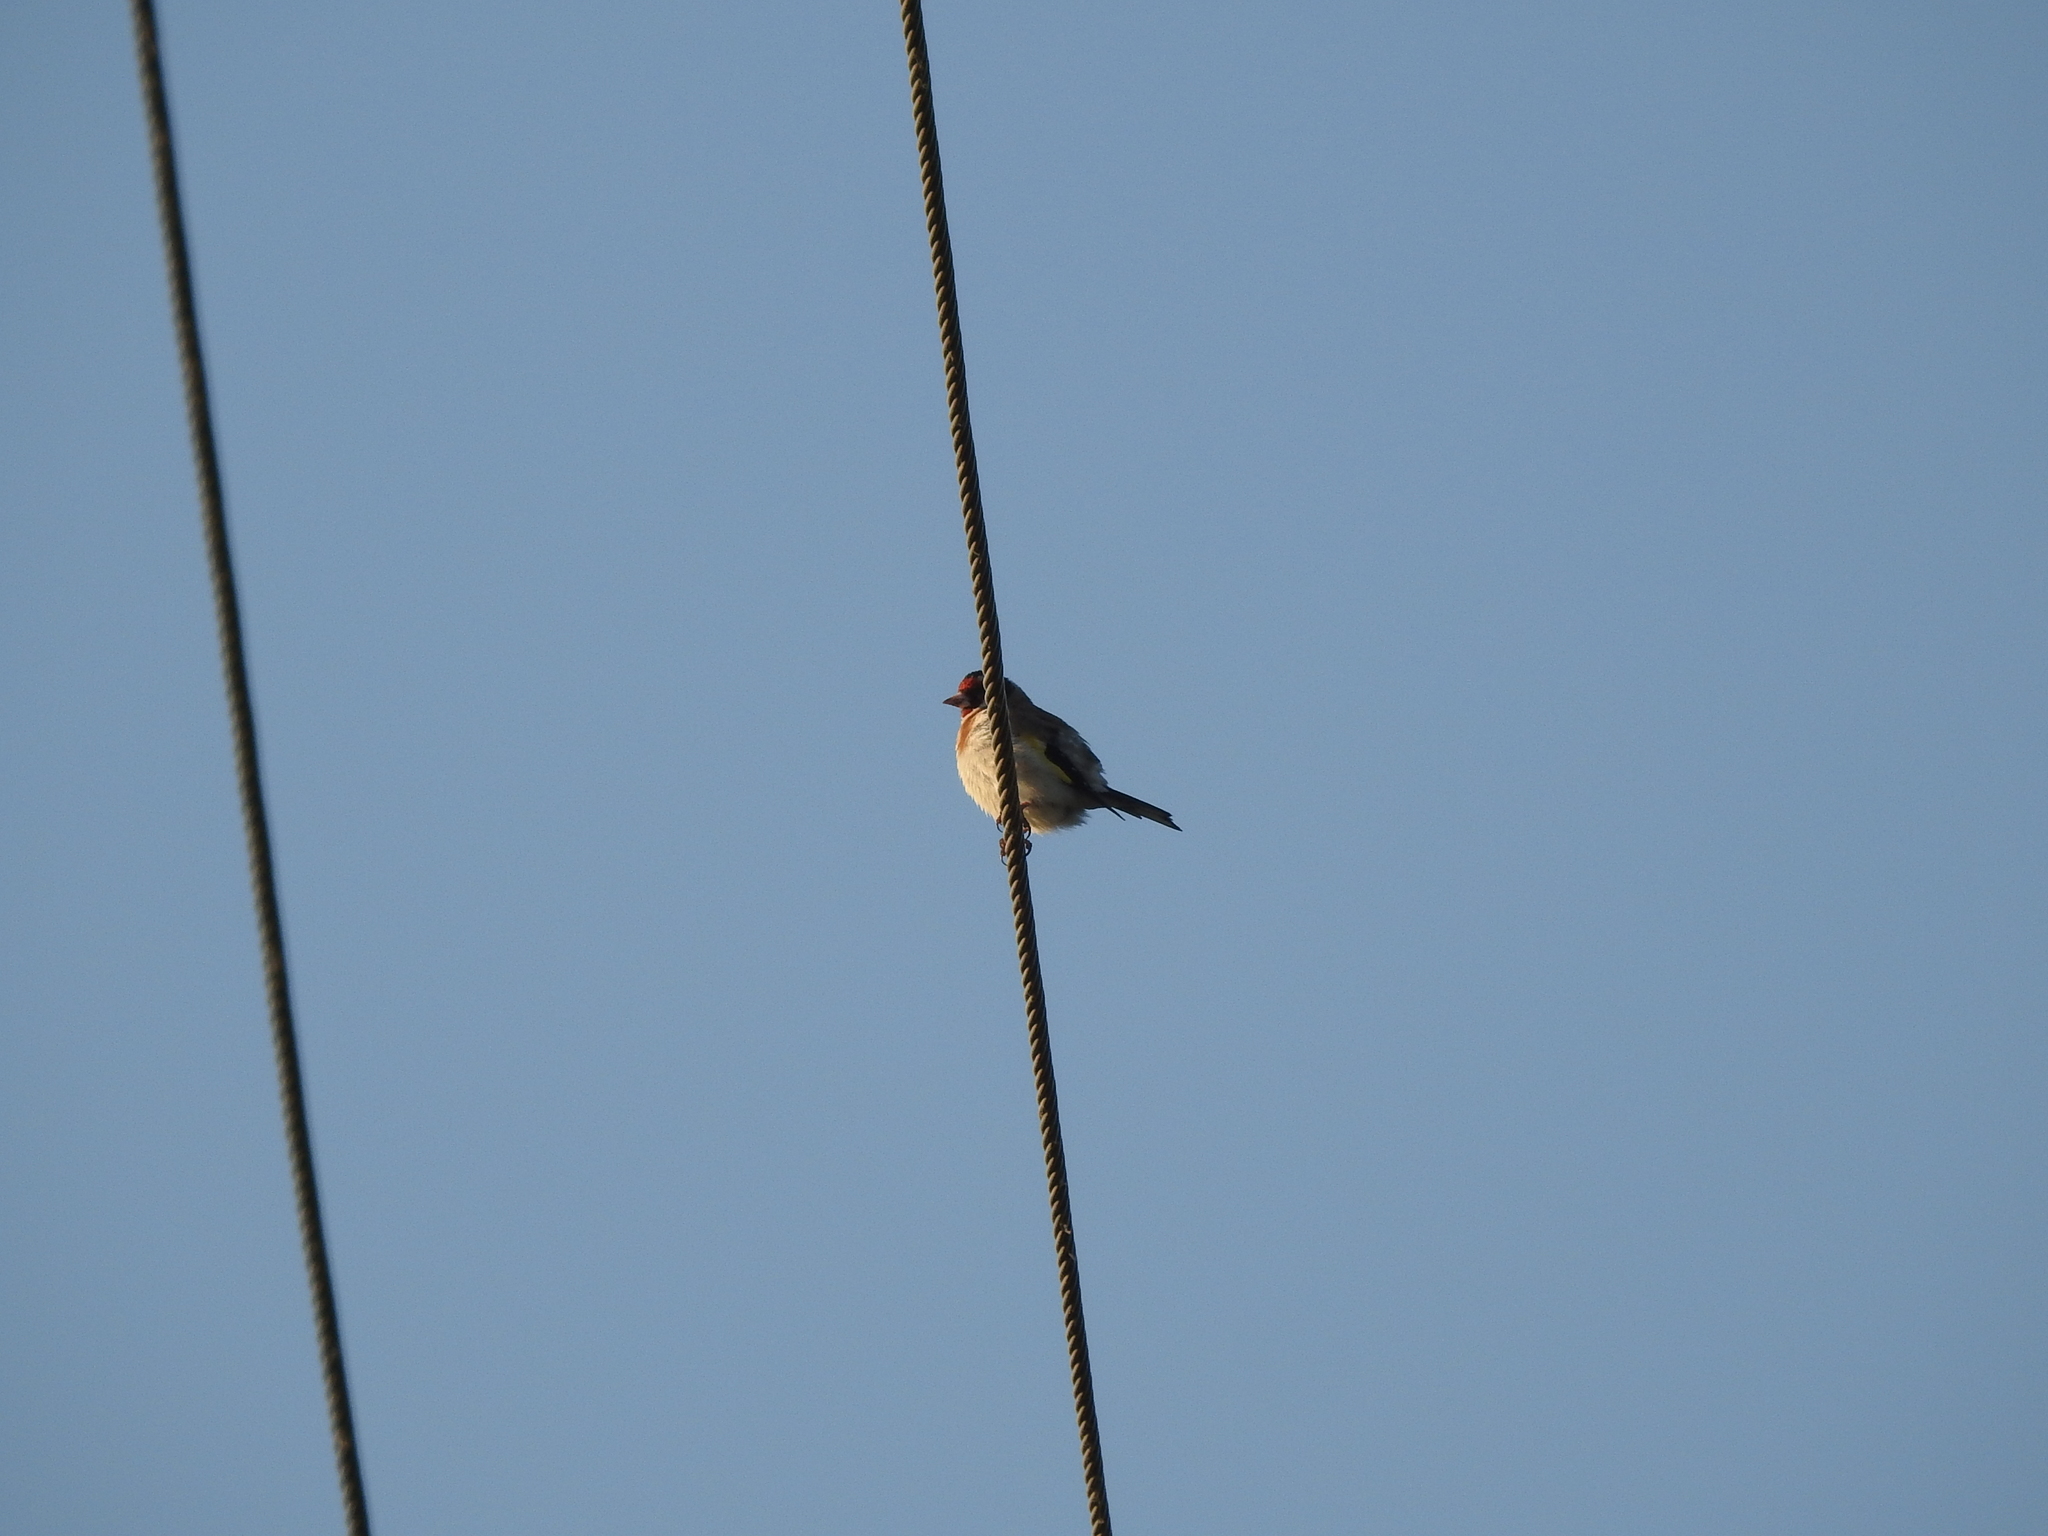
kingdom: Animalia
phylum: Chordata
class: Aves
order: Passeriformes
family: Fringillidae
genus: Carduelis
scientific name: Carduelis carduelis
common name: European goldfinch
